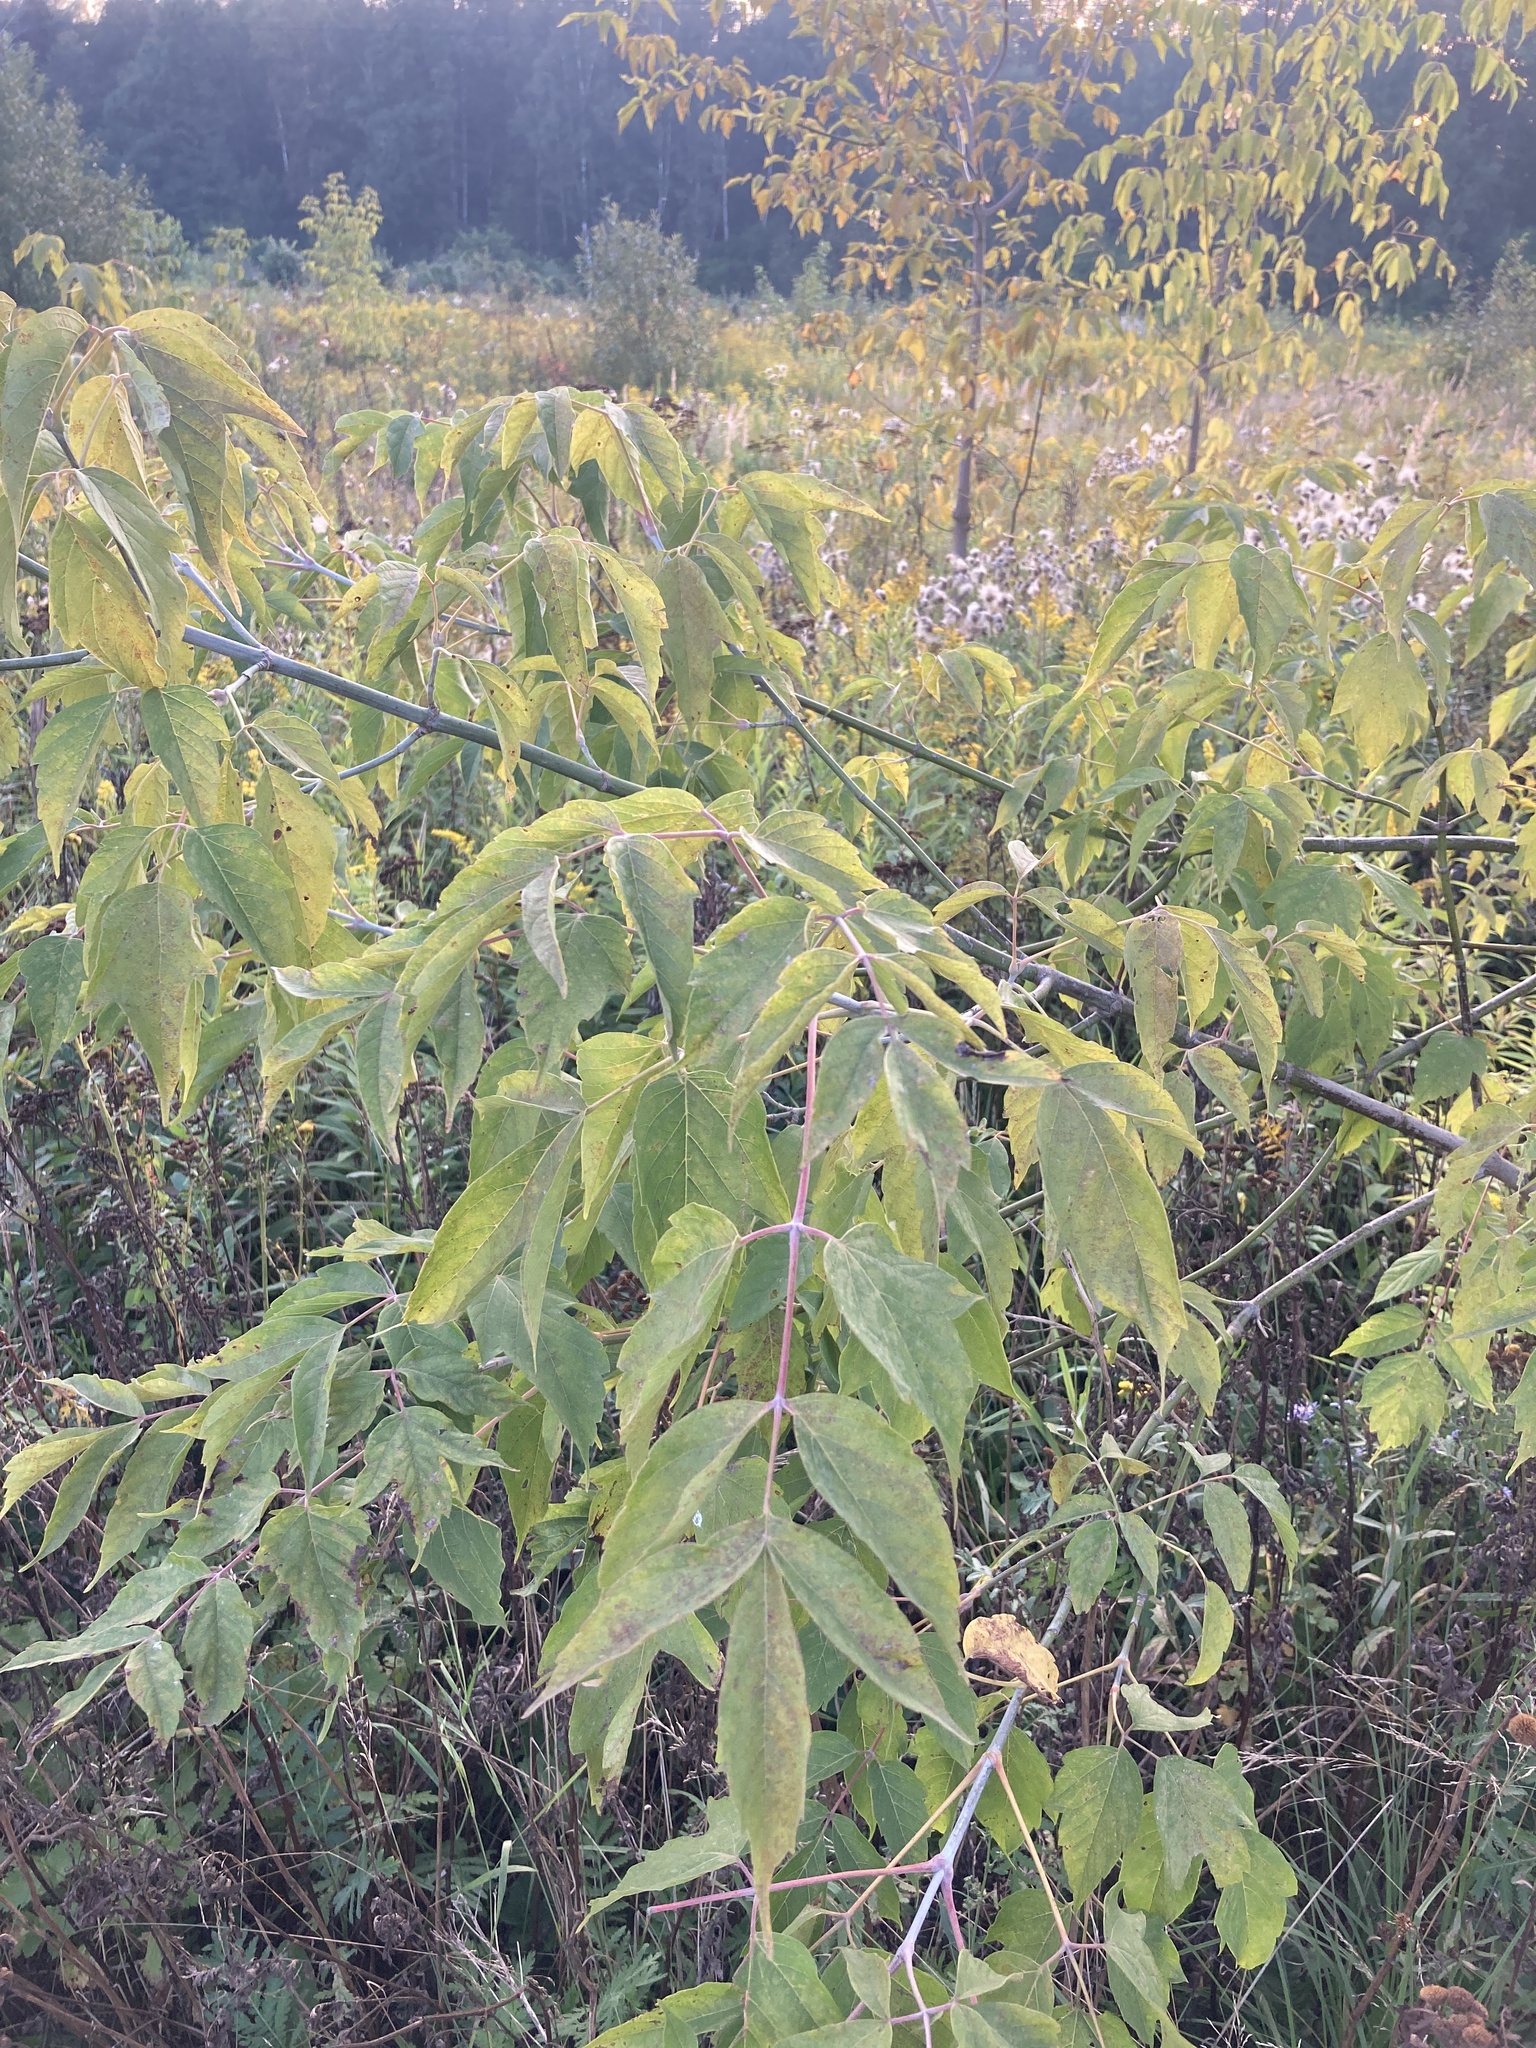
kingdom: Plantae
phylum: Tracheophyta
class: Magnoliopsida
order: Sapindales
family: Sapindaceae
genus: Acer
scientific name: Acer negundo
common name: Ashleaf maple
